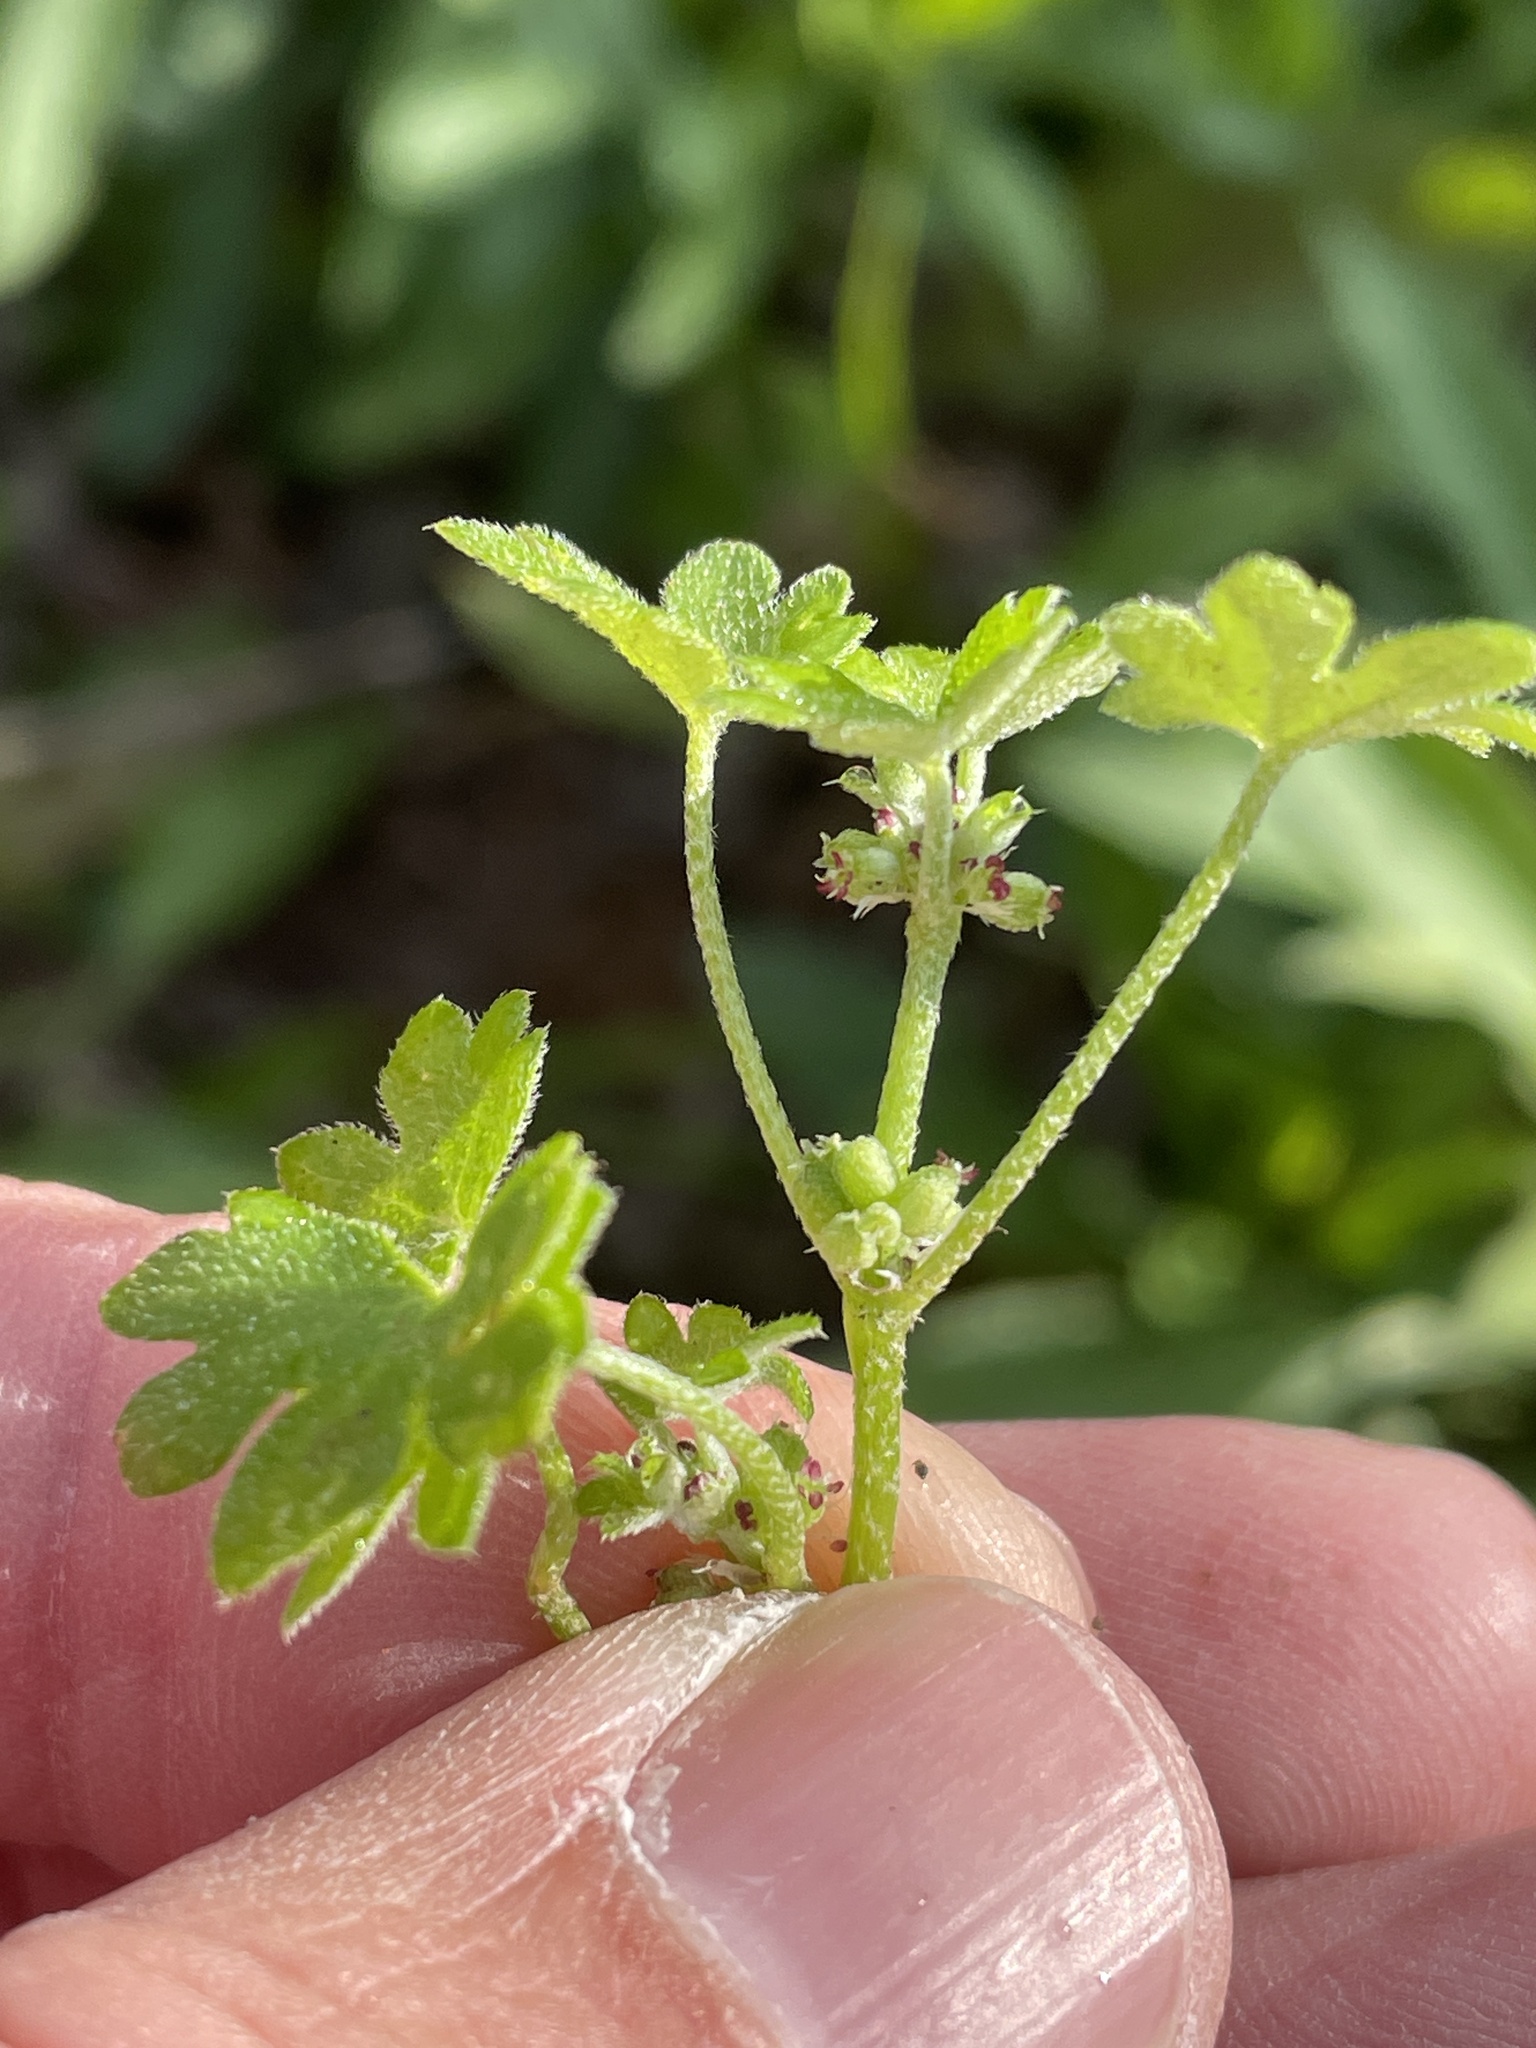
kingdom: Plantae
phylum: Tracheophyta
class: Magnoliopsida
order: Apiales
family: Apiaceae
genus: Bowlesia
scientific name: Bowlesia incana
